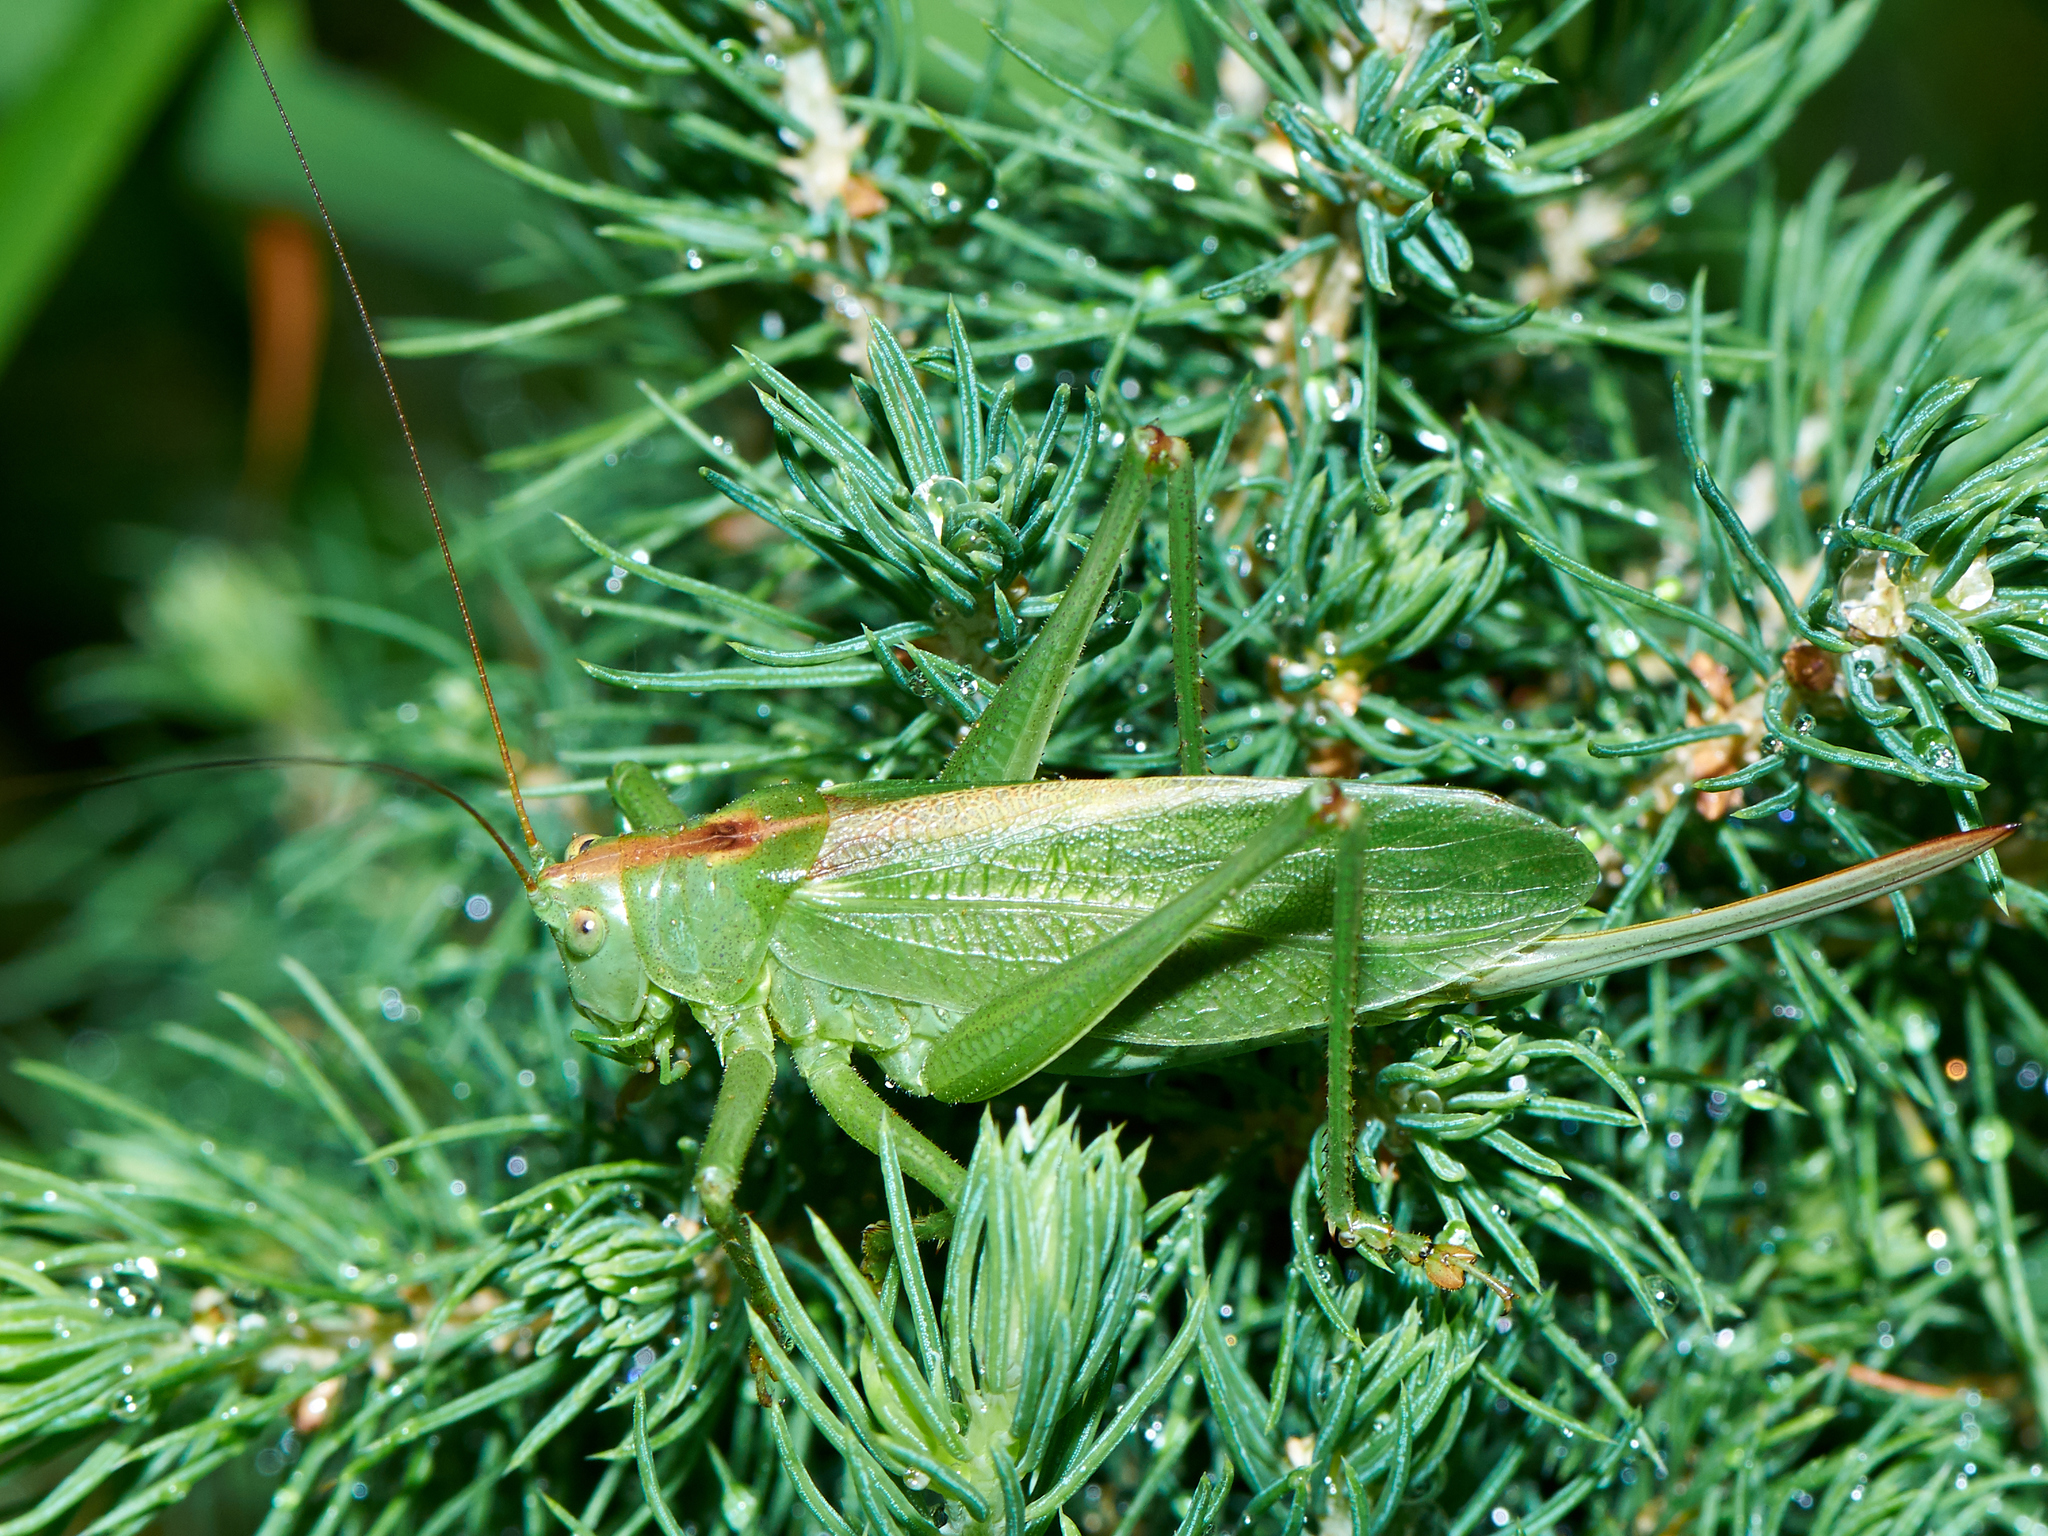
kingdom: Animalia
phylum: Arthropoda
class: Insecta
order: Orthoptera
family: Tettigoniidae
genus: Tettigonia
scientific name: Tettigonia cantans
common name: Upland green bush-cricket
